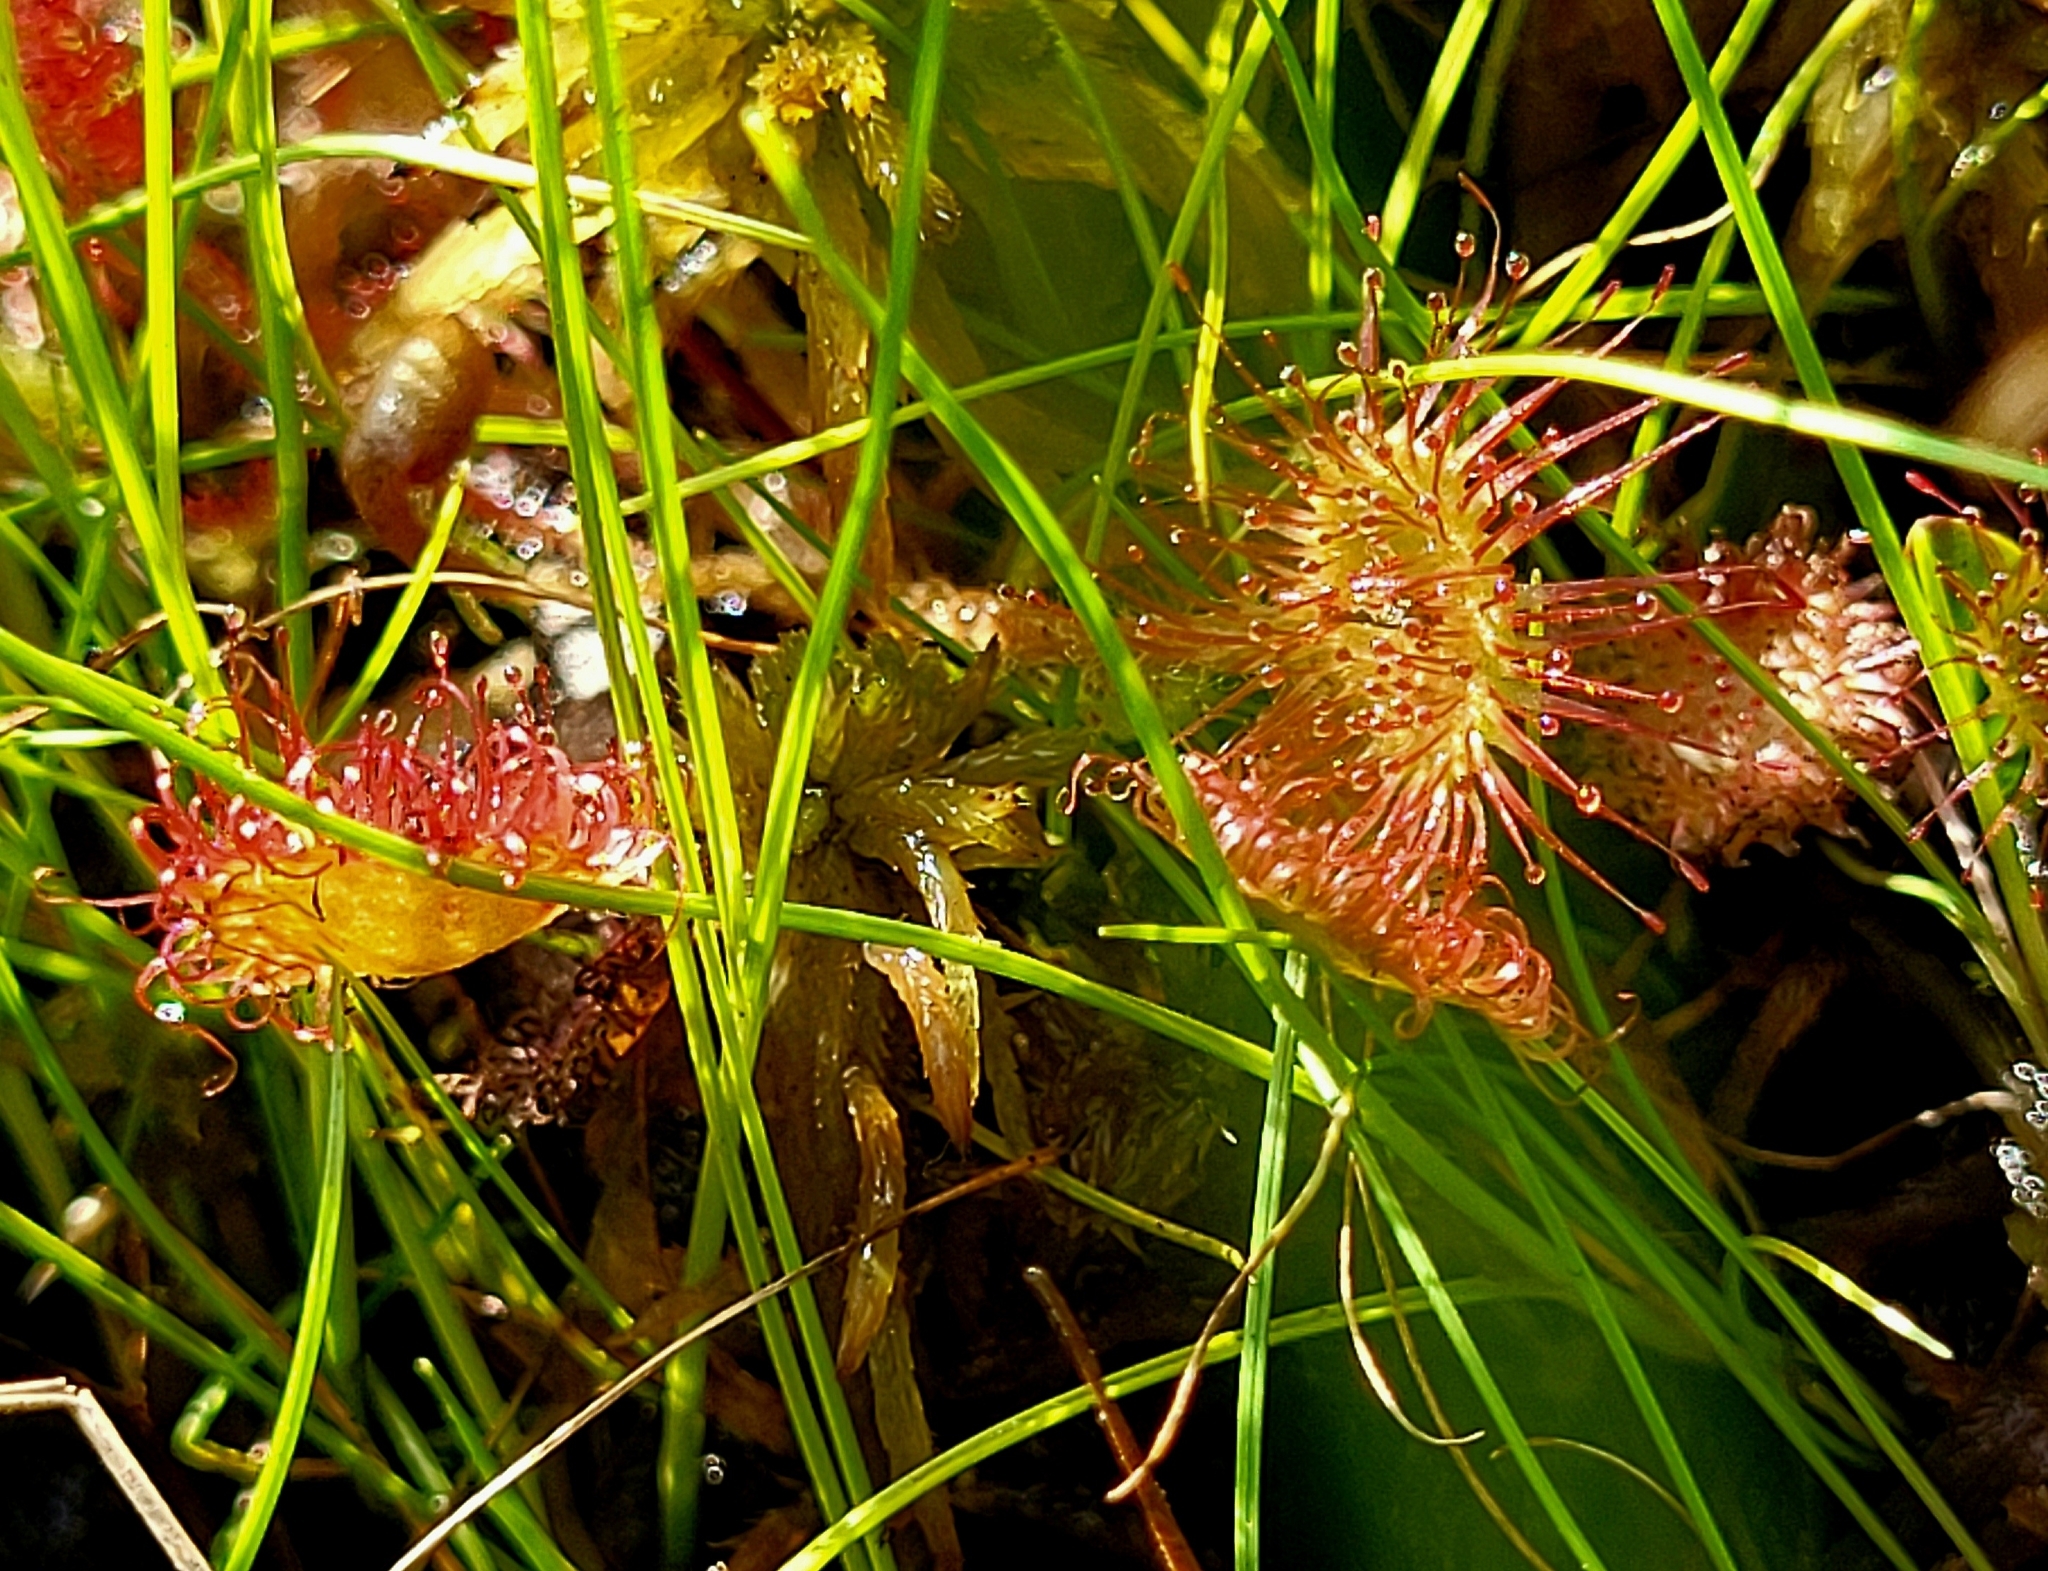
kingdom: Plantae
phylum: Tracheophyta
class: Magnoliopsida
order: Caryophyllales
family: Droseraceae
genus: Drosera
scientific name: Drosera rotundifolia
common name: Round-leaved sundew
